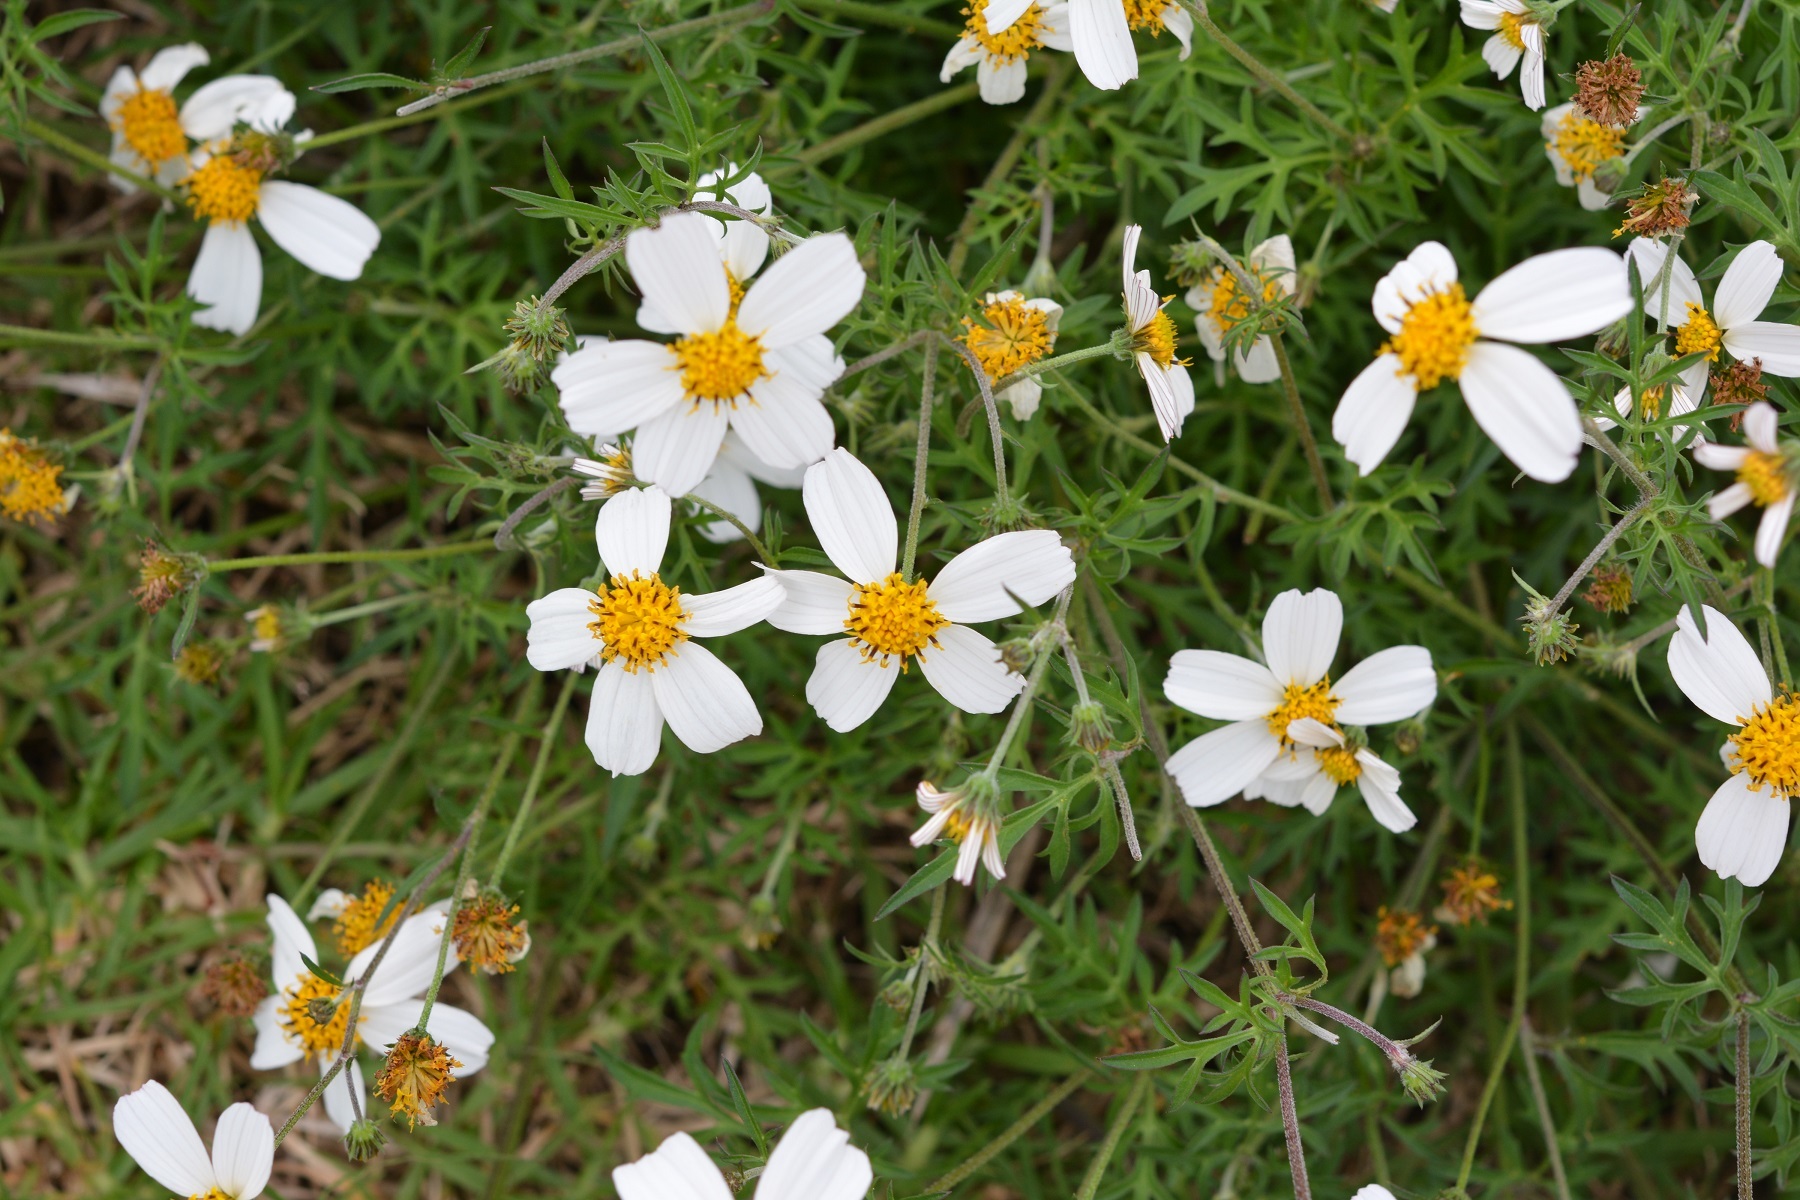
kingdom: Plantae
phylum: Tracheophyta
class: Magnoliopsida
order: Asterales
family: Asteraceae
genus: Bidens
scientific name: Bidens odorata
